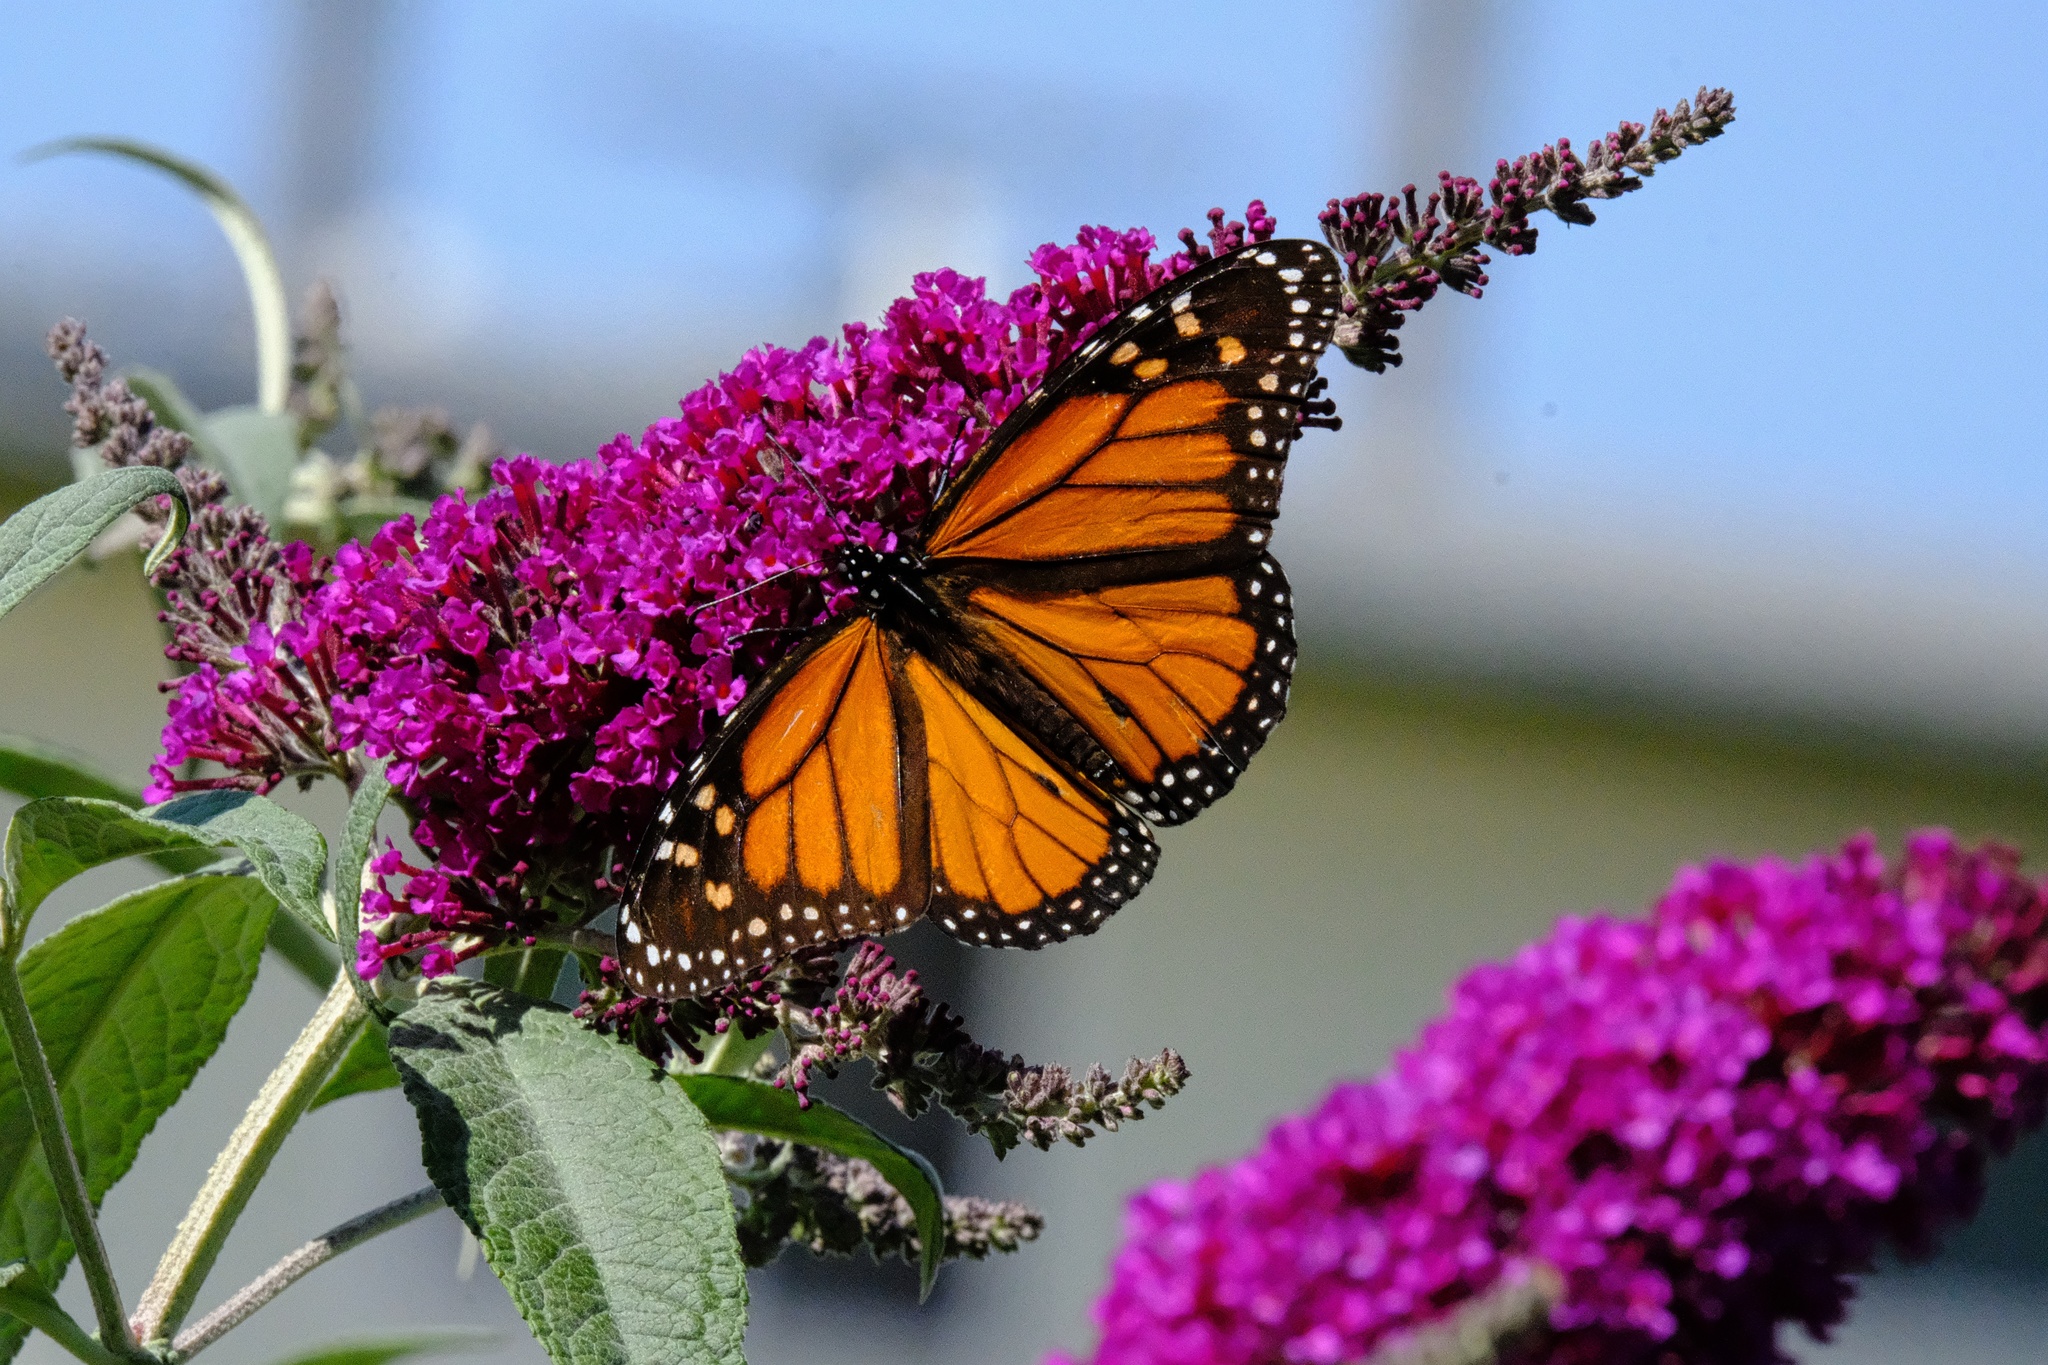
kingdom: Animalia
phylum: Arthropoda
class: Insecta
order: Lepidoptera
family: Nymphalidae
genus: Danaus
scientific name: Danaus plexippus
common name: Monarch
